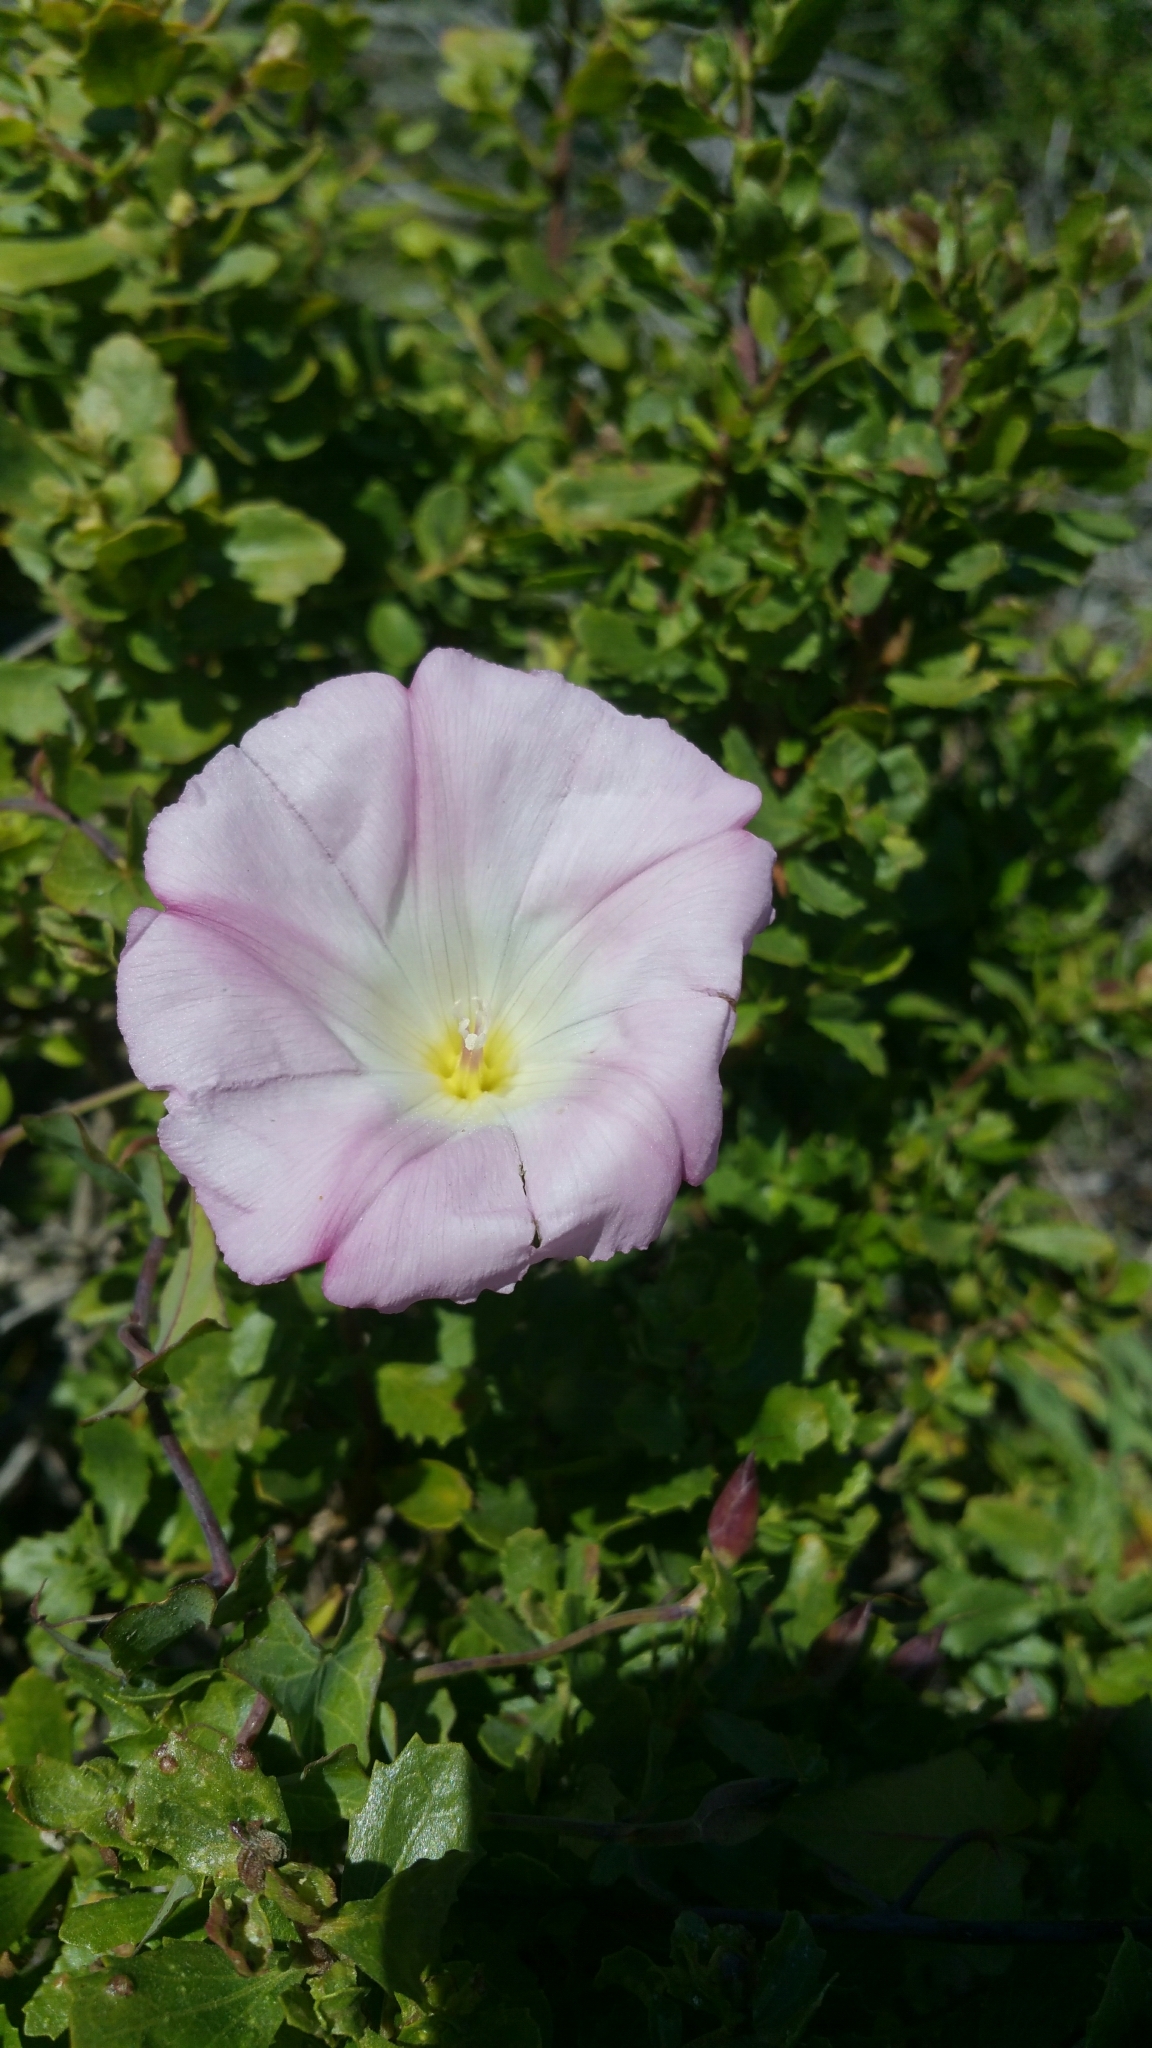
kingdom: Plantae
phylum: Tracheophyta
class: Magnoliopsida
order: Solanales
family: Convolvulaceae
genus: Calystegia
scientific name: Calystegia purpurata
